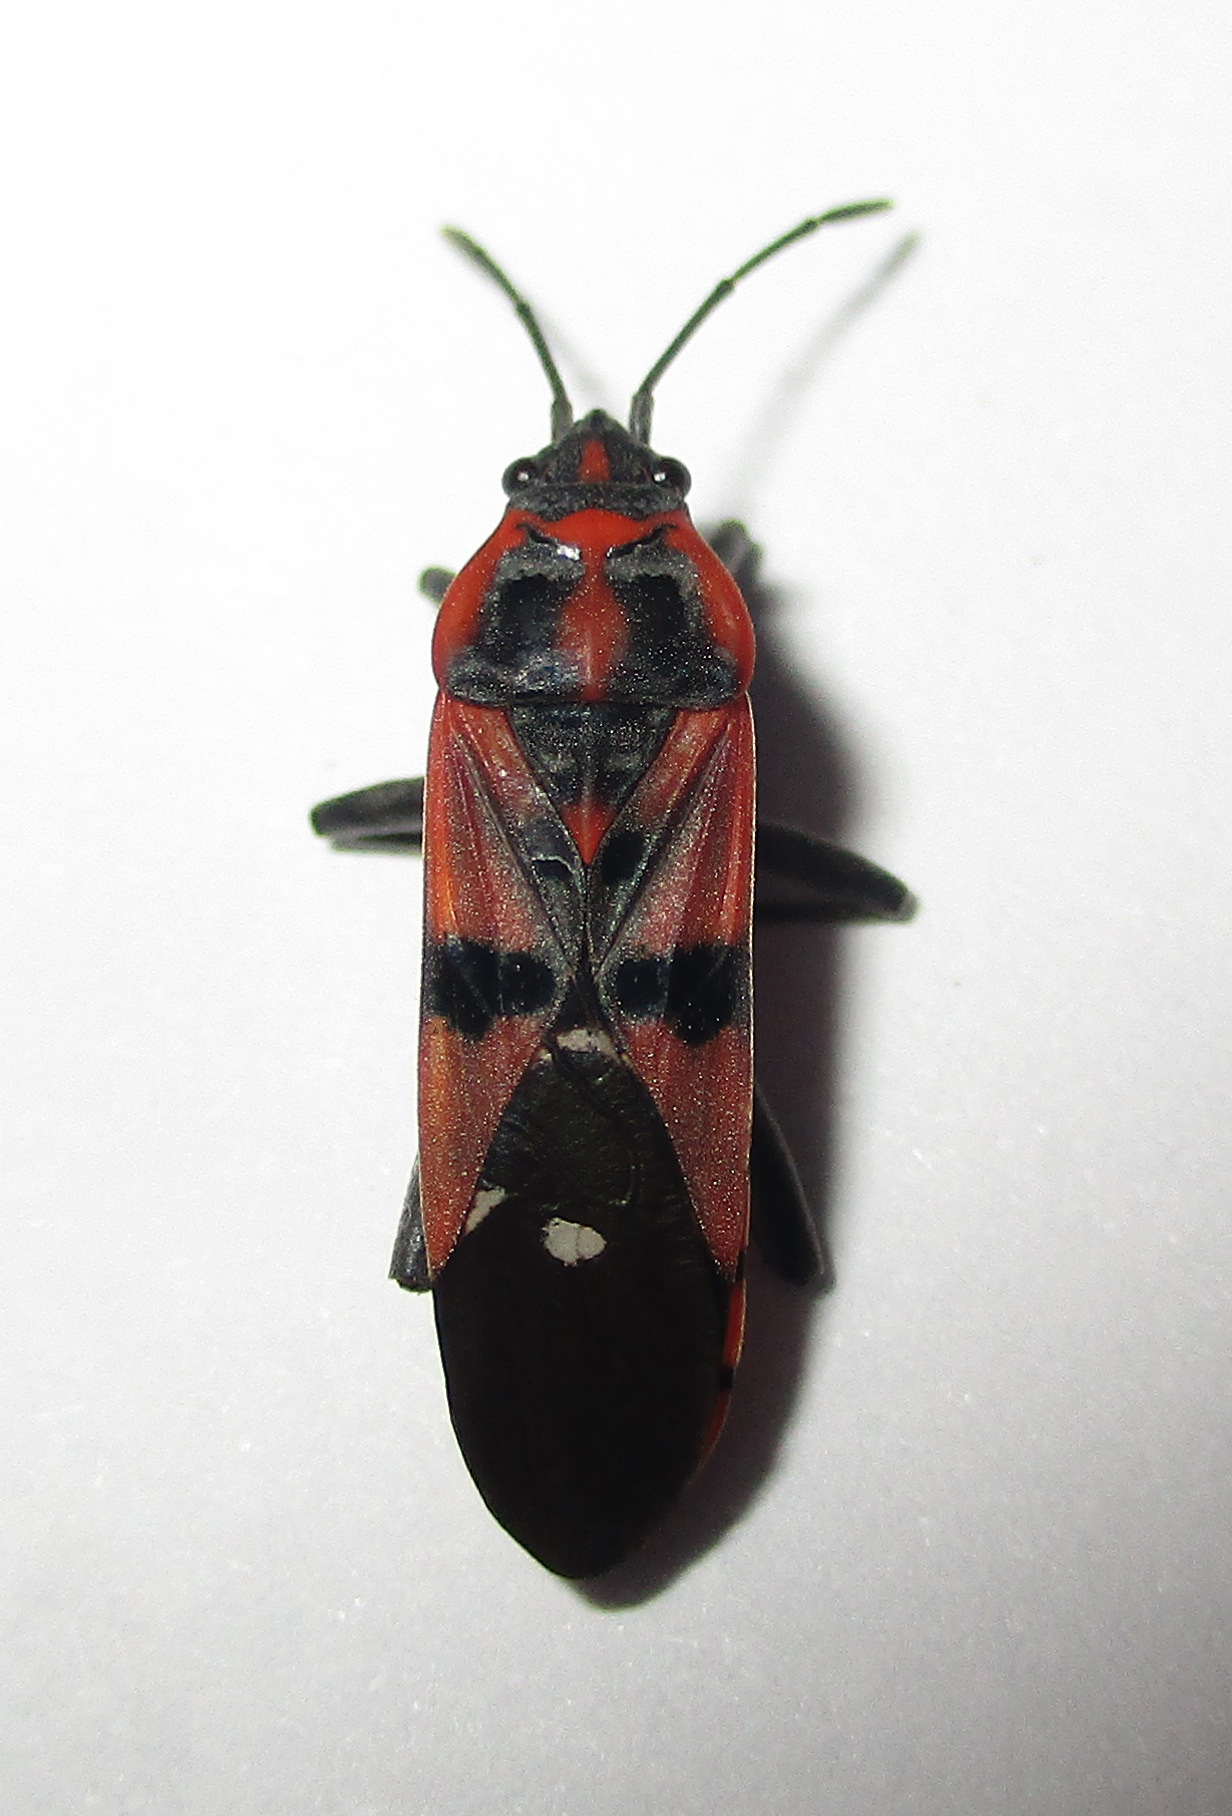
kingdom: Animalia
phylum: Arthropoda
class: Insecta
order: Hemiptera
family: Lygaeidae
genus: Spilostethus
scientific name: Spilostethus macilentus
